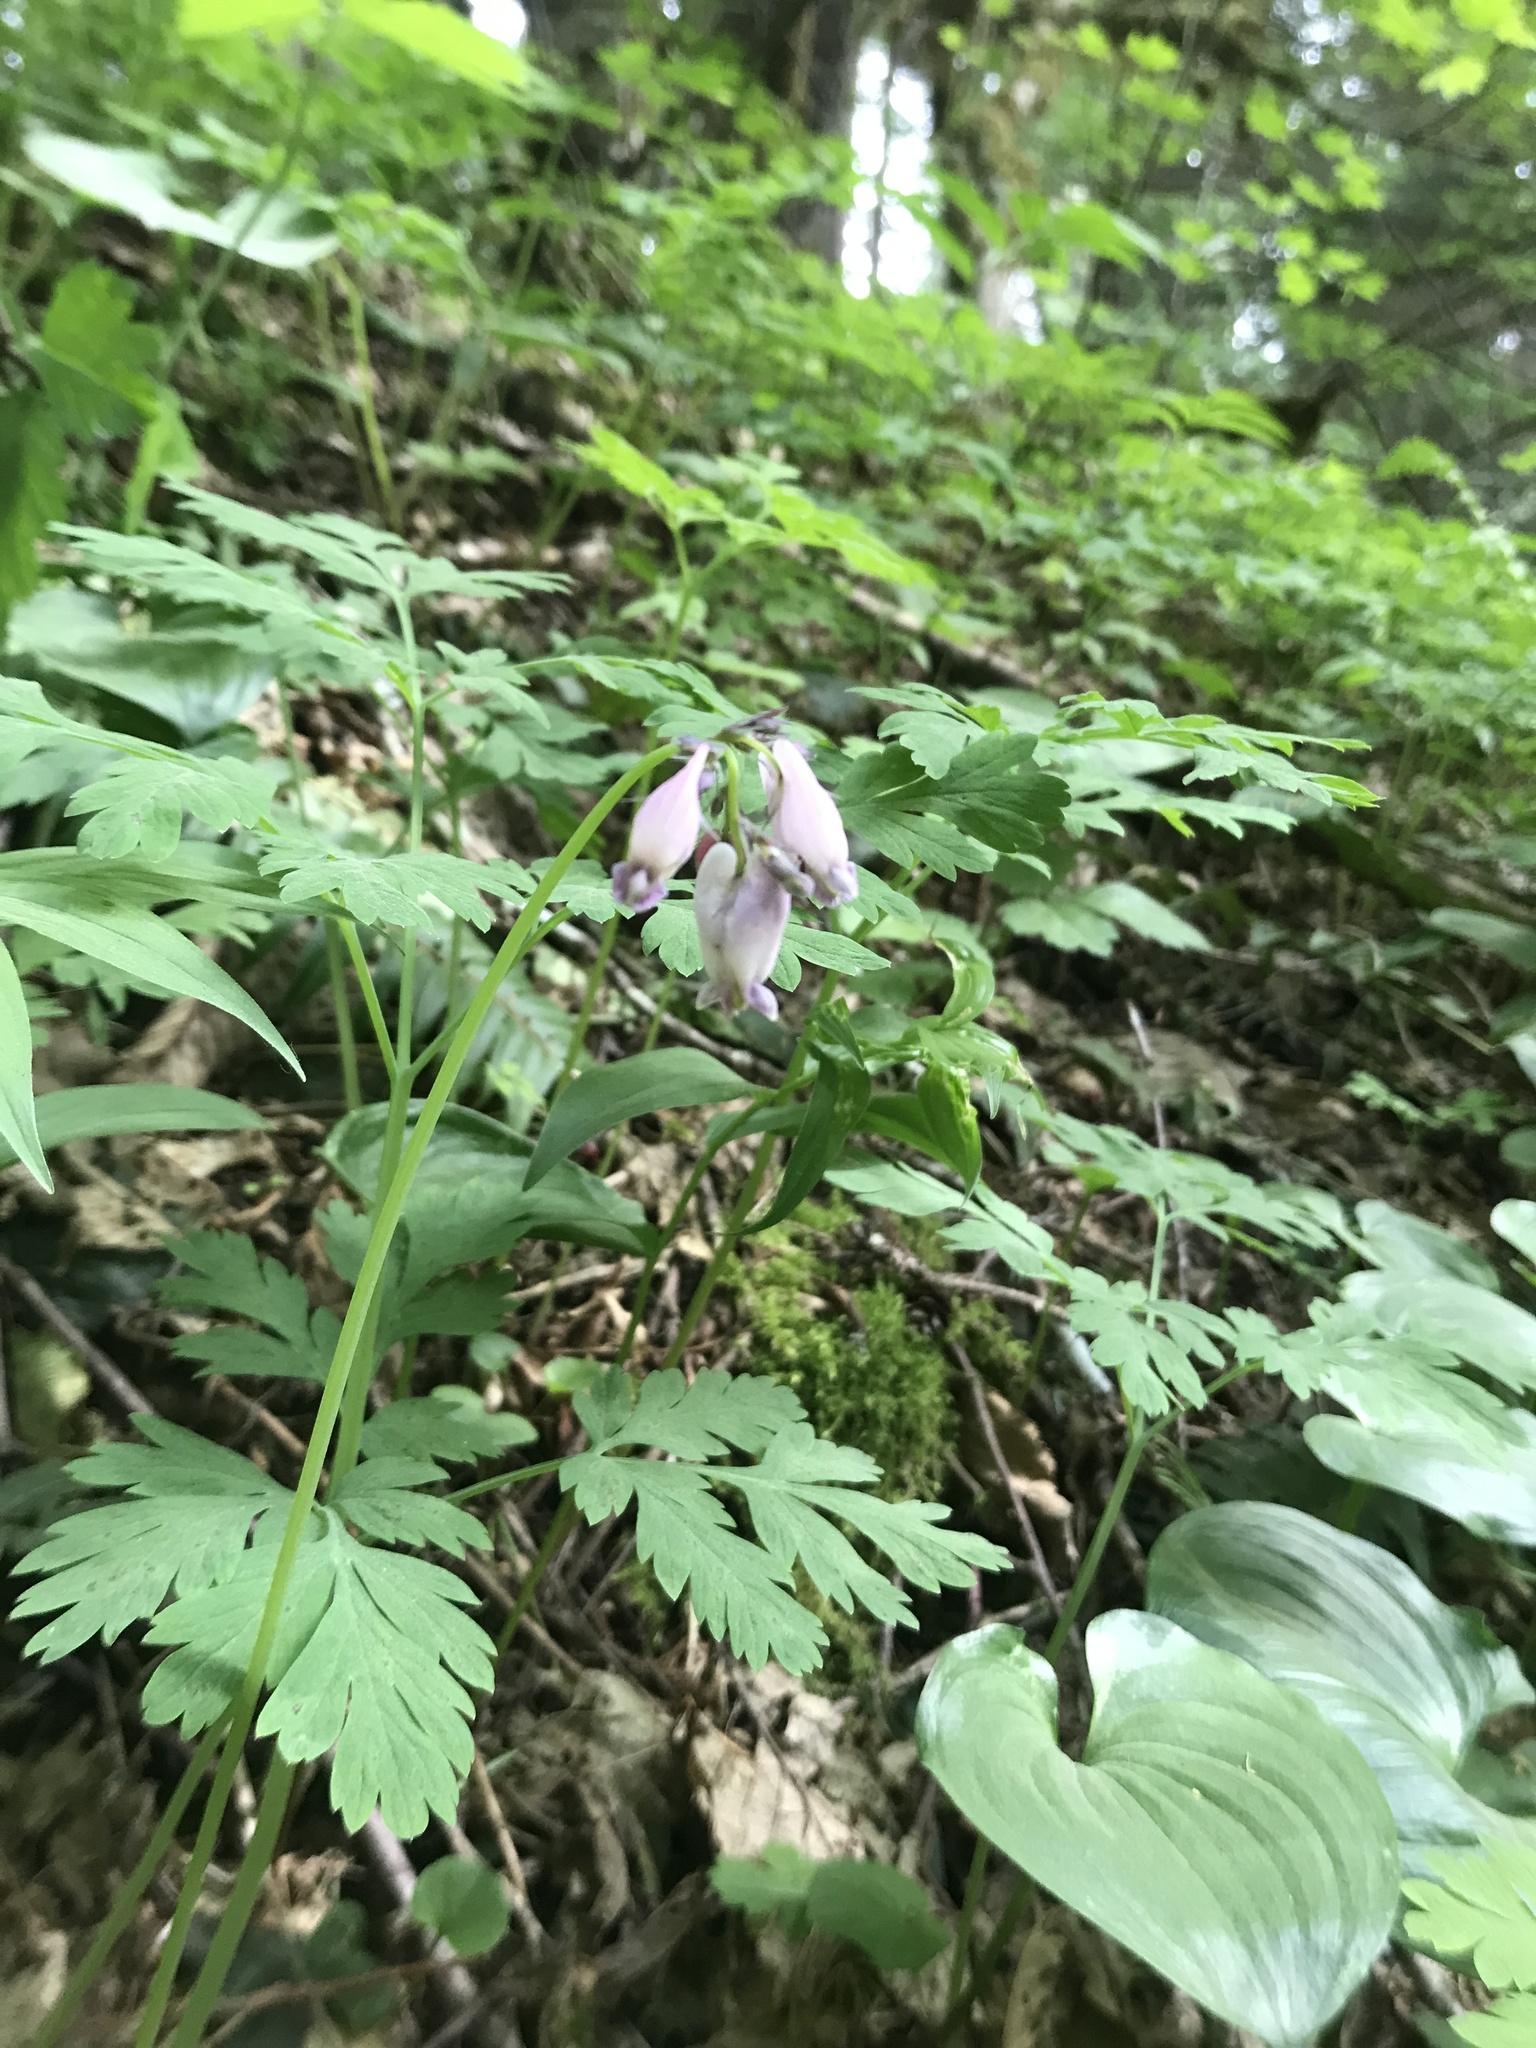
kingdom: Plantae
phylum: Tracheophyta
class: Magnoliopsida
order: Ranunculales
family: Papaveraceae
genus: Dicentra
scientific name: Dicentra formosa
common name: Bleeding-heart
